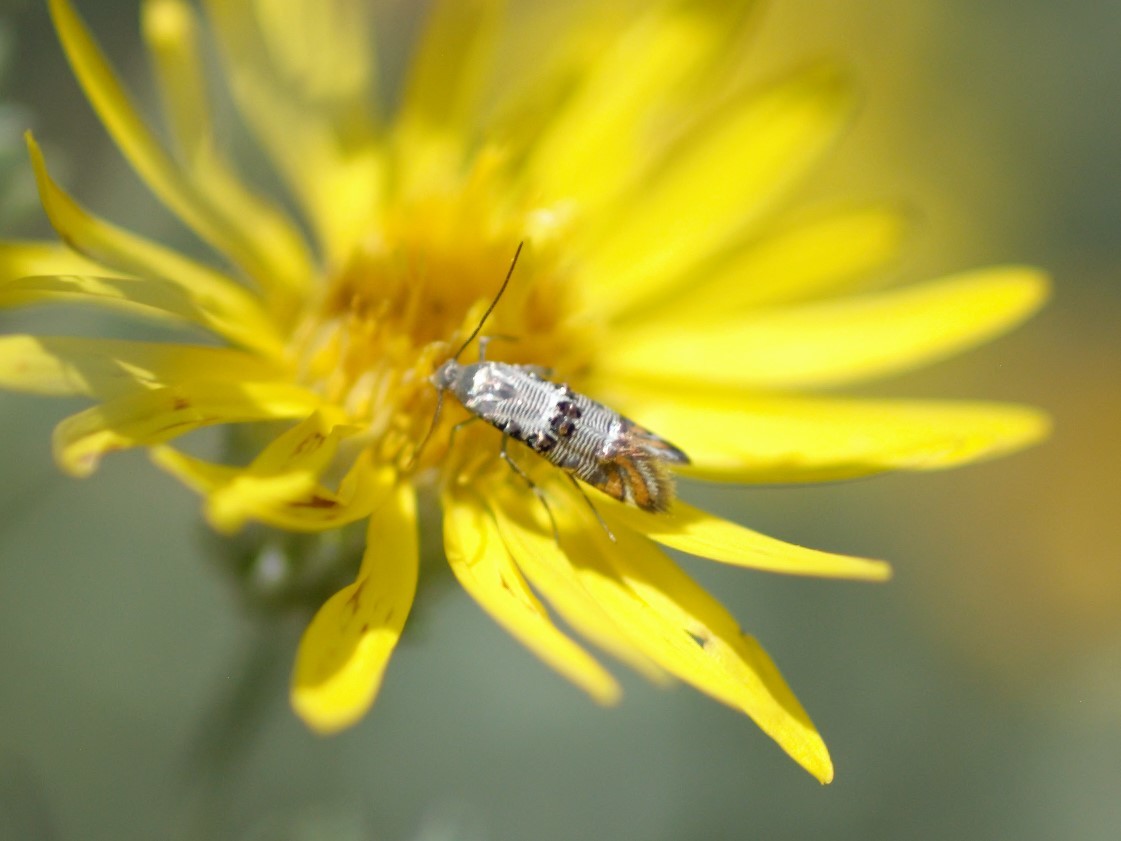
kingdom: Animalia
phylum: Arthropoda
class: Insecta
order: Lepidoptera
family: Heliodinidae
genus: Lithariapteryx
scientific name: Lithariapteryx abroniaeella
